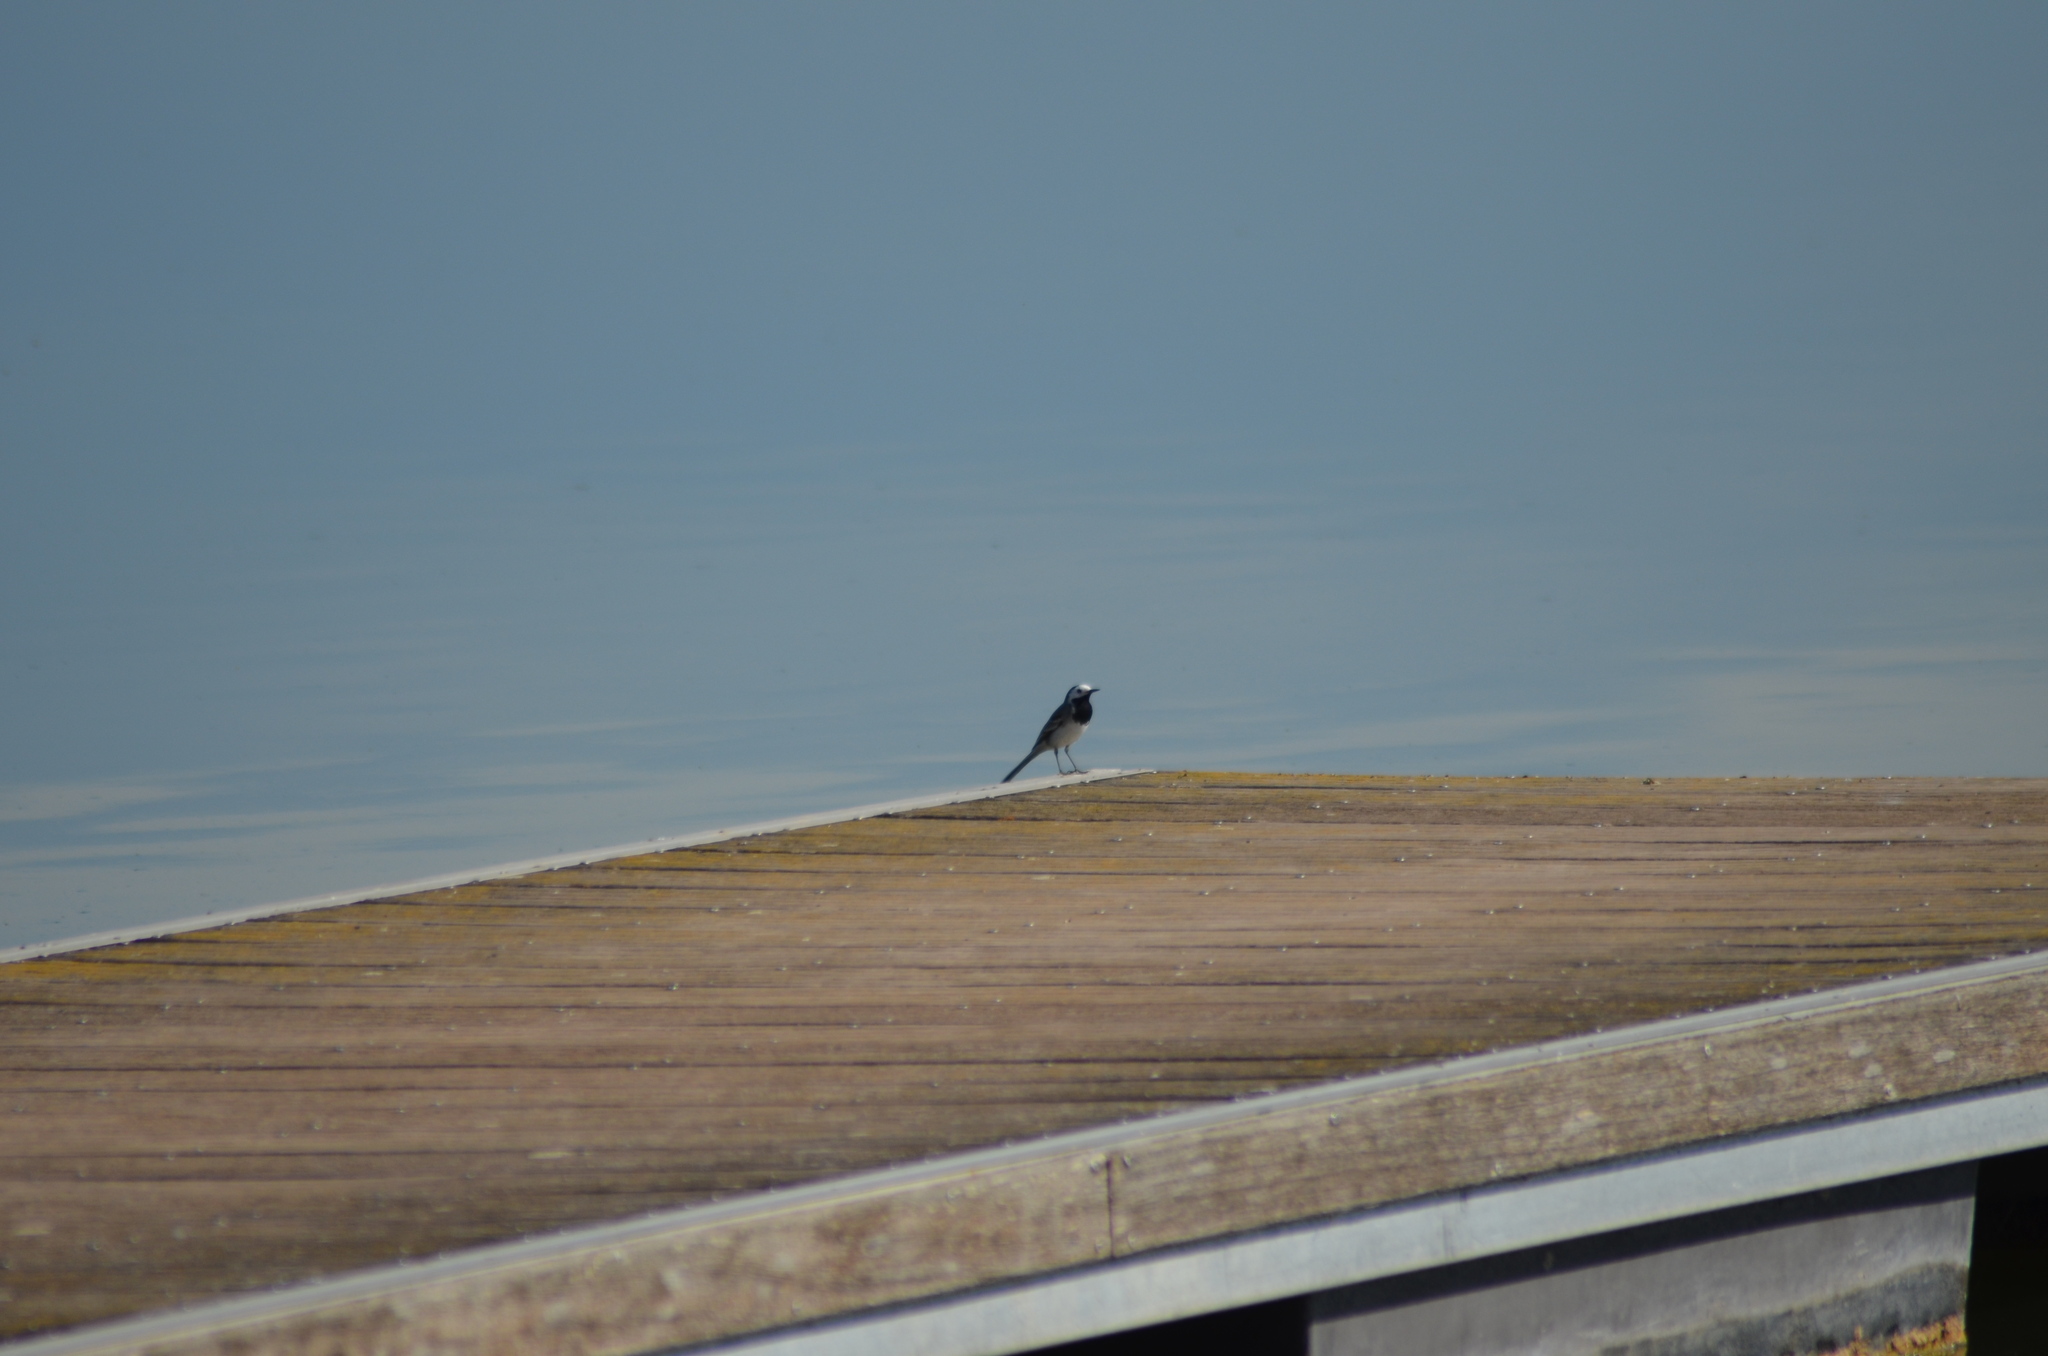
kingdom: Animalia
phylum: Chordata
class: Aves
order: Passeriformes
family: Motacillidae
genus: Motacilla
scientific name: Motacilla alba
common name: White wagtail
